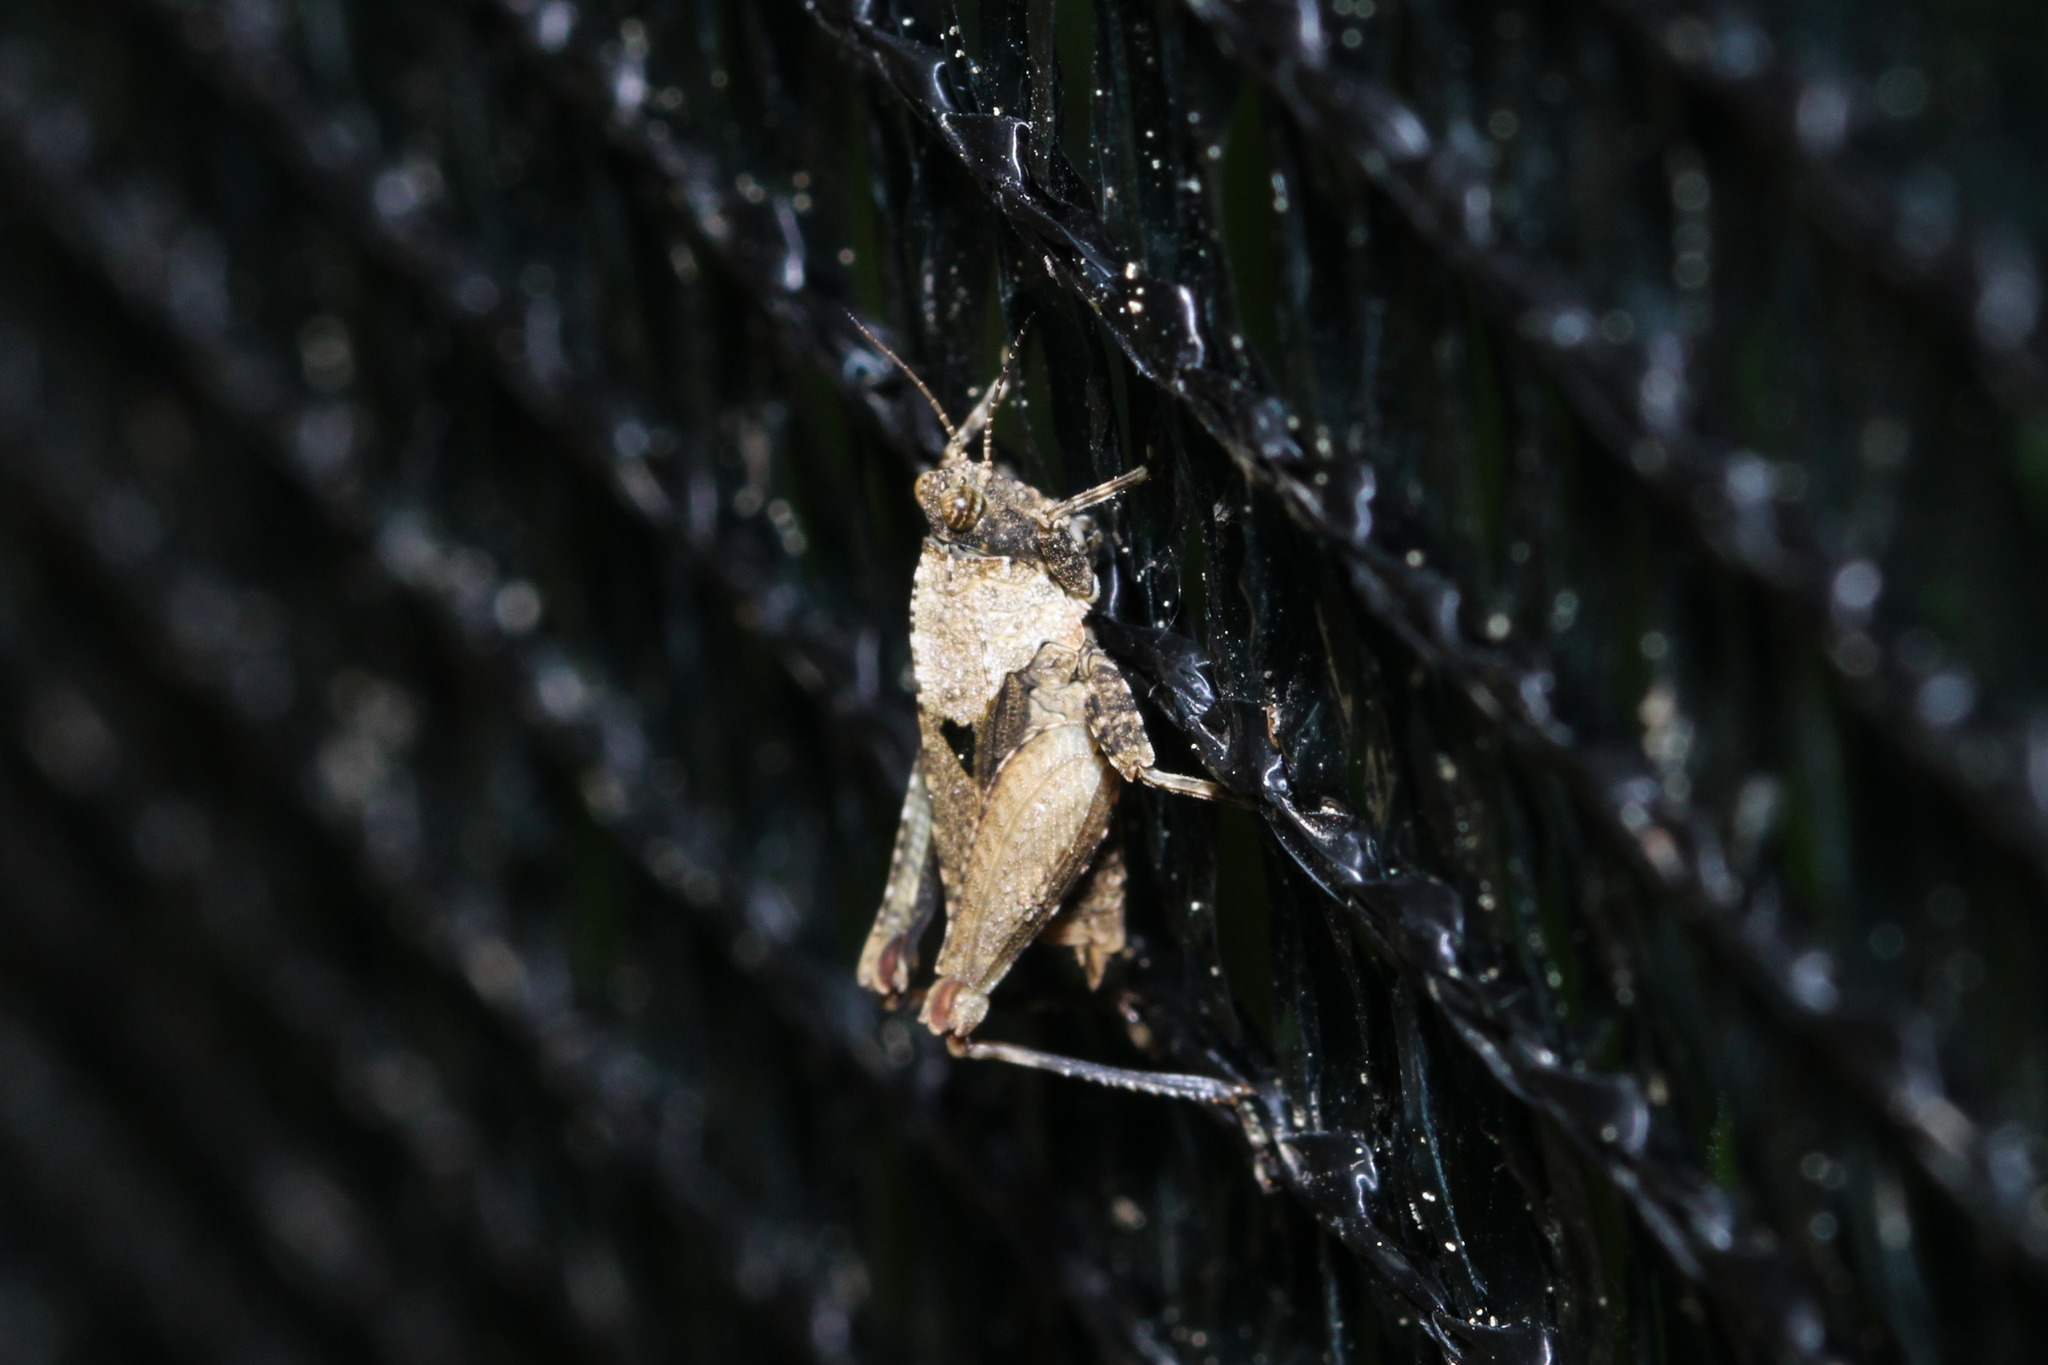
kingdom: Animalia
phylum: Arthropoda
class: Insecta
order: Orthoptera
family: Tetrigidae
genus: Tetrix
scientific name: Tetrix tenuicornis
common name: Long-horned groundhopper
